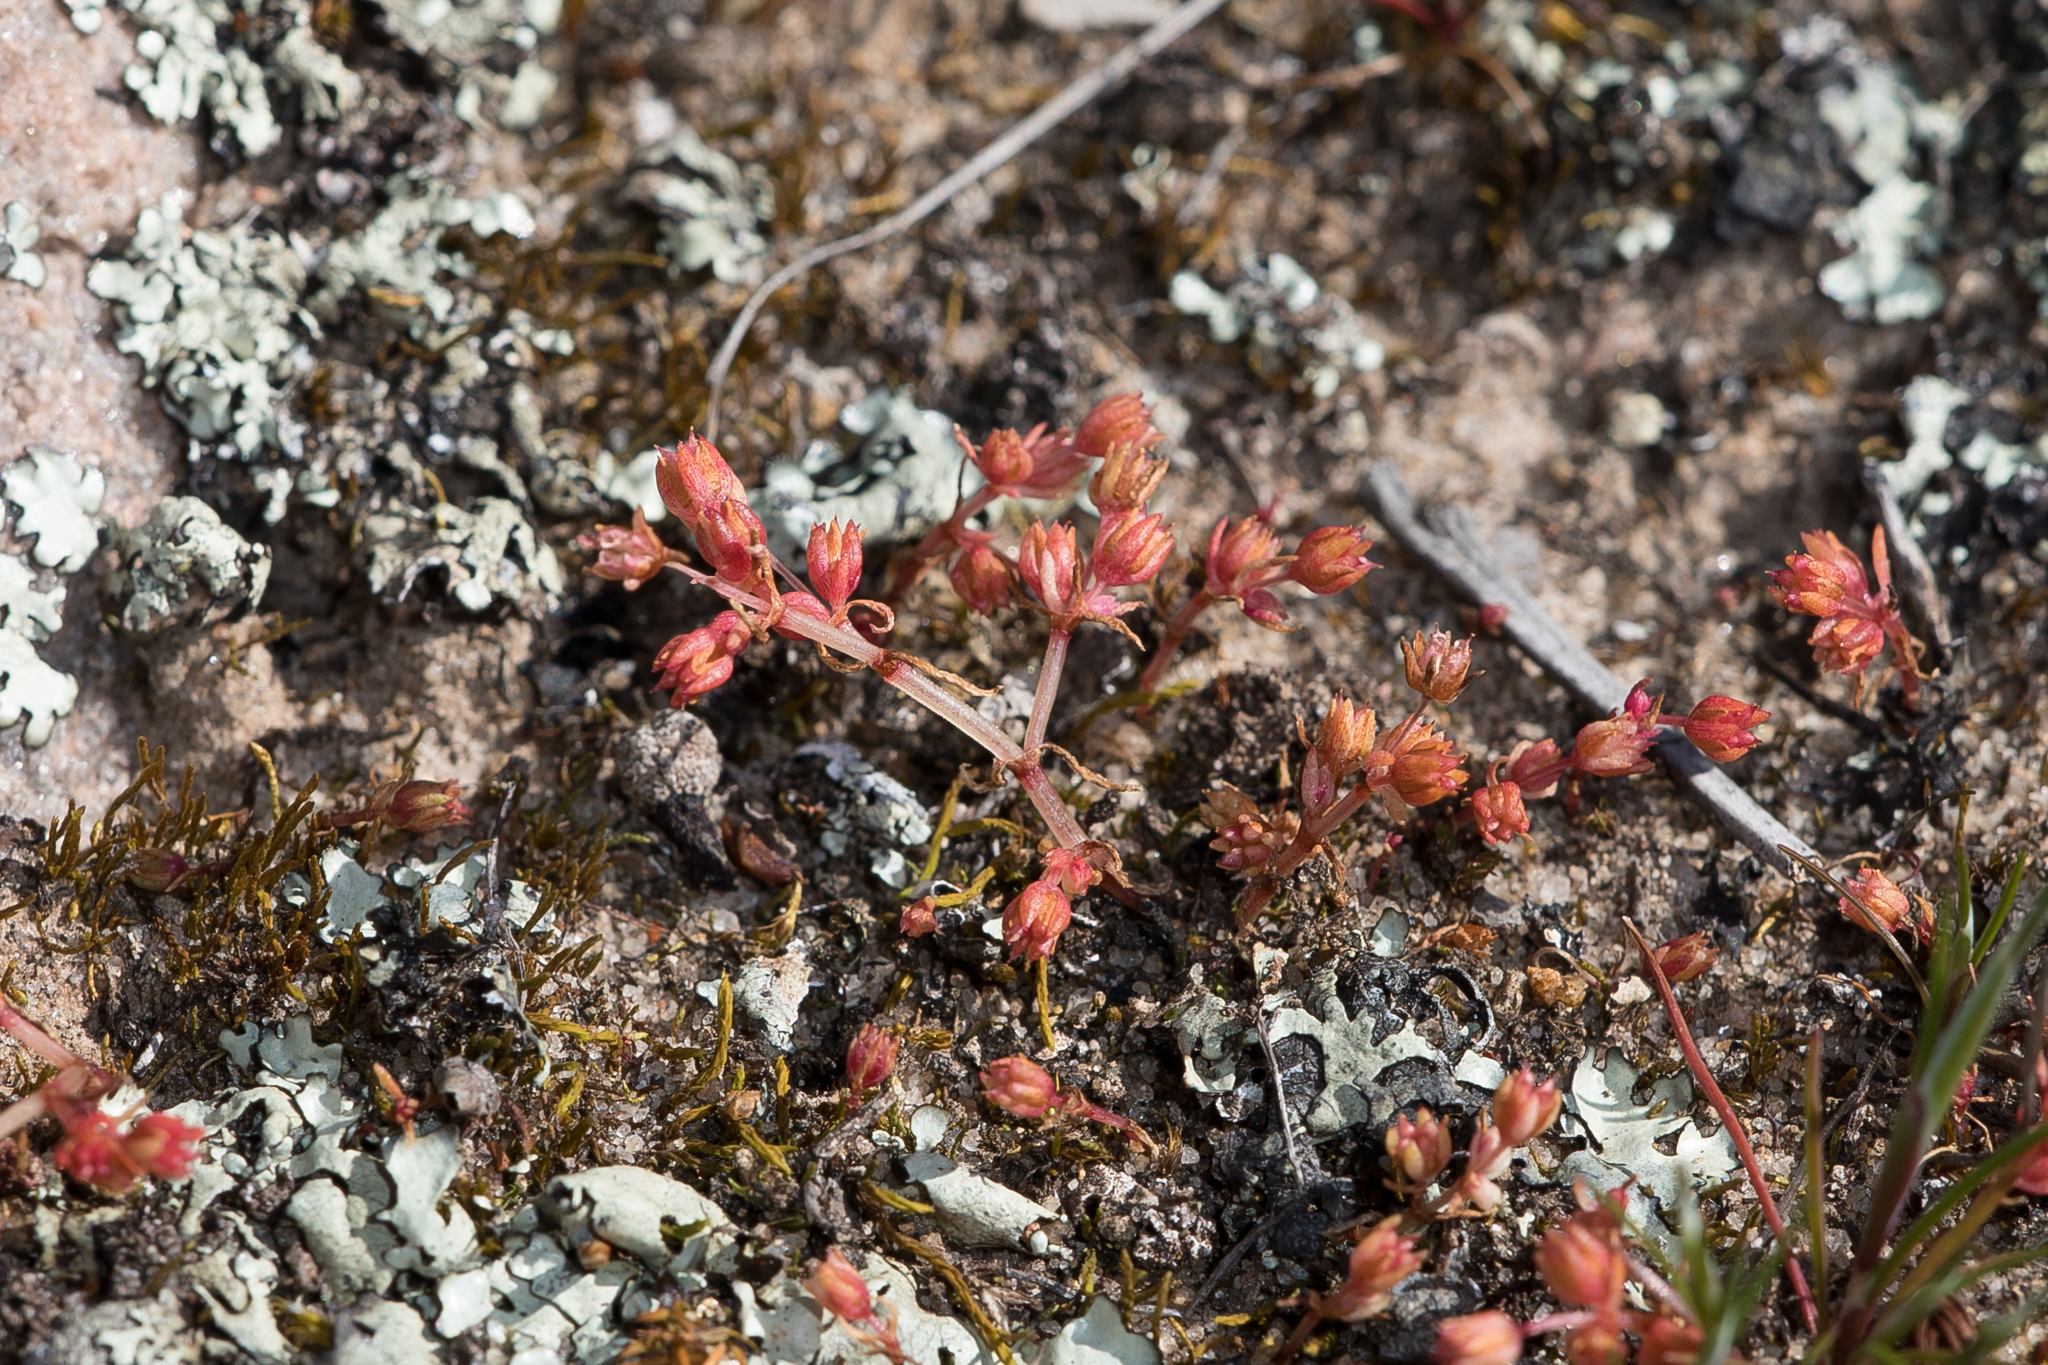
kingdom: Plantae
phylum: Tracheophyta
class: Magnoliopsida
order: Saxifragales
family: Crassulaceae
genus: Crassula
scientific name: Crassula decumbens
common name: Scilly pigmyweed
